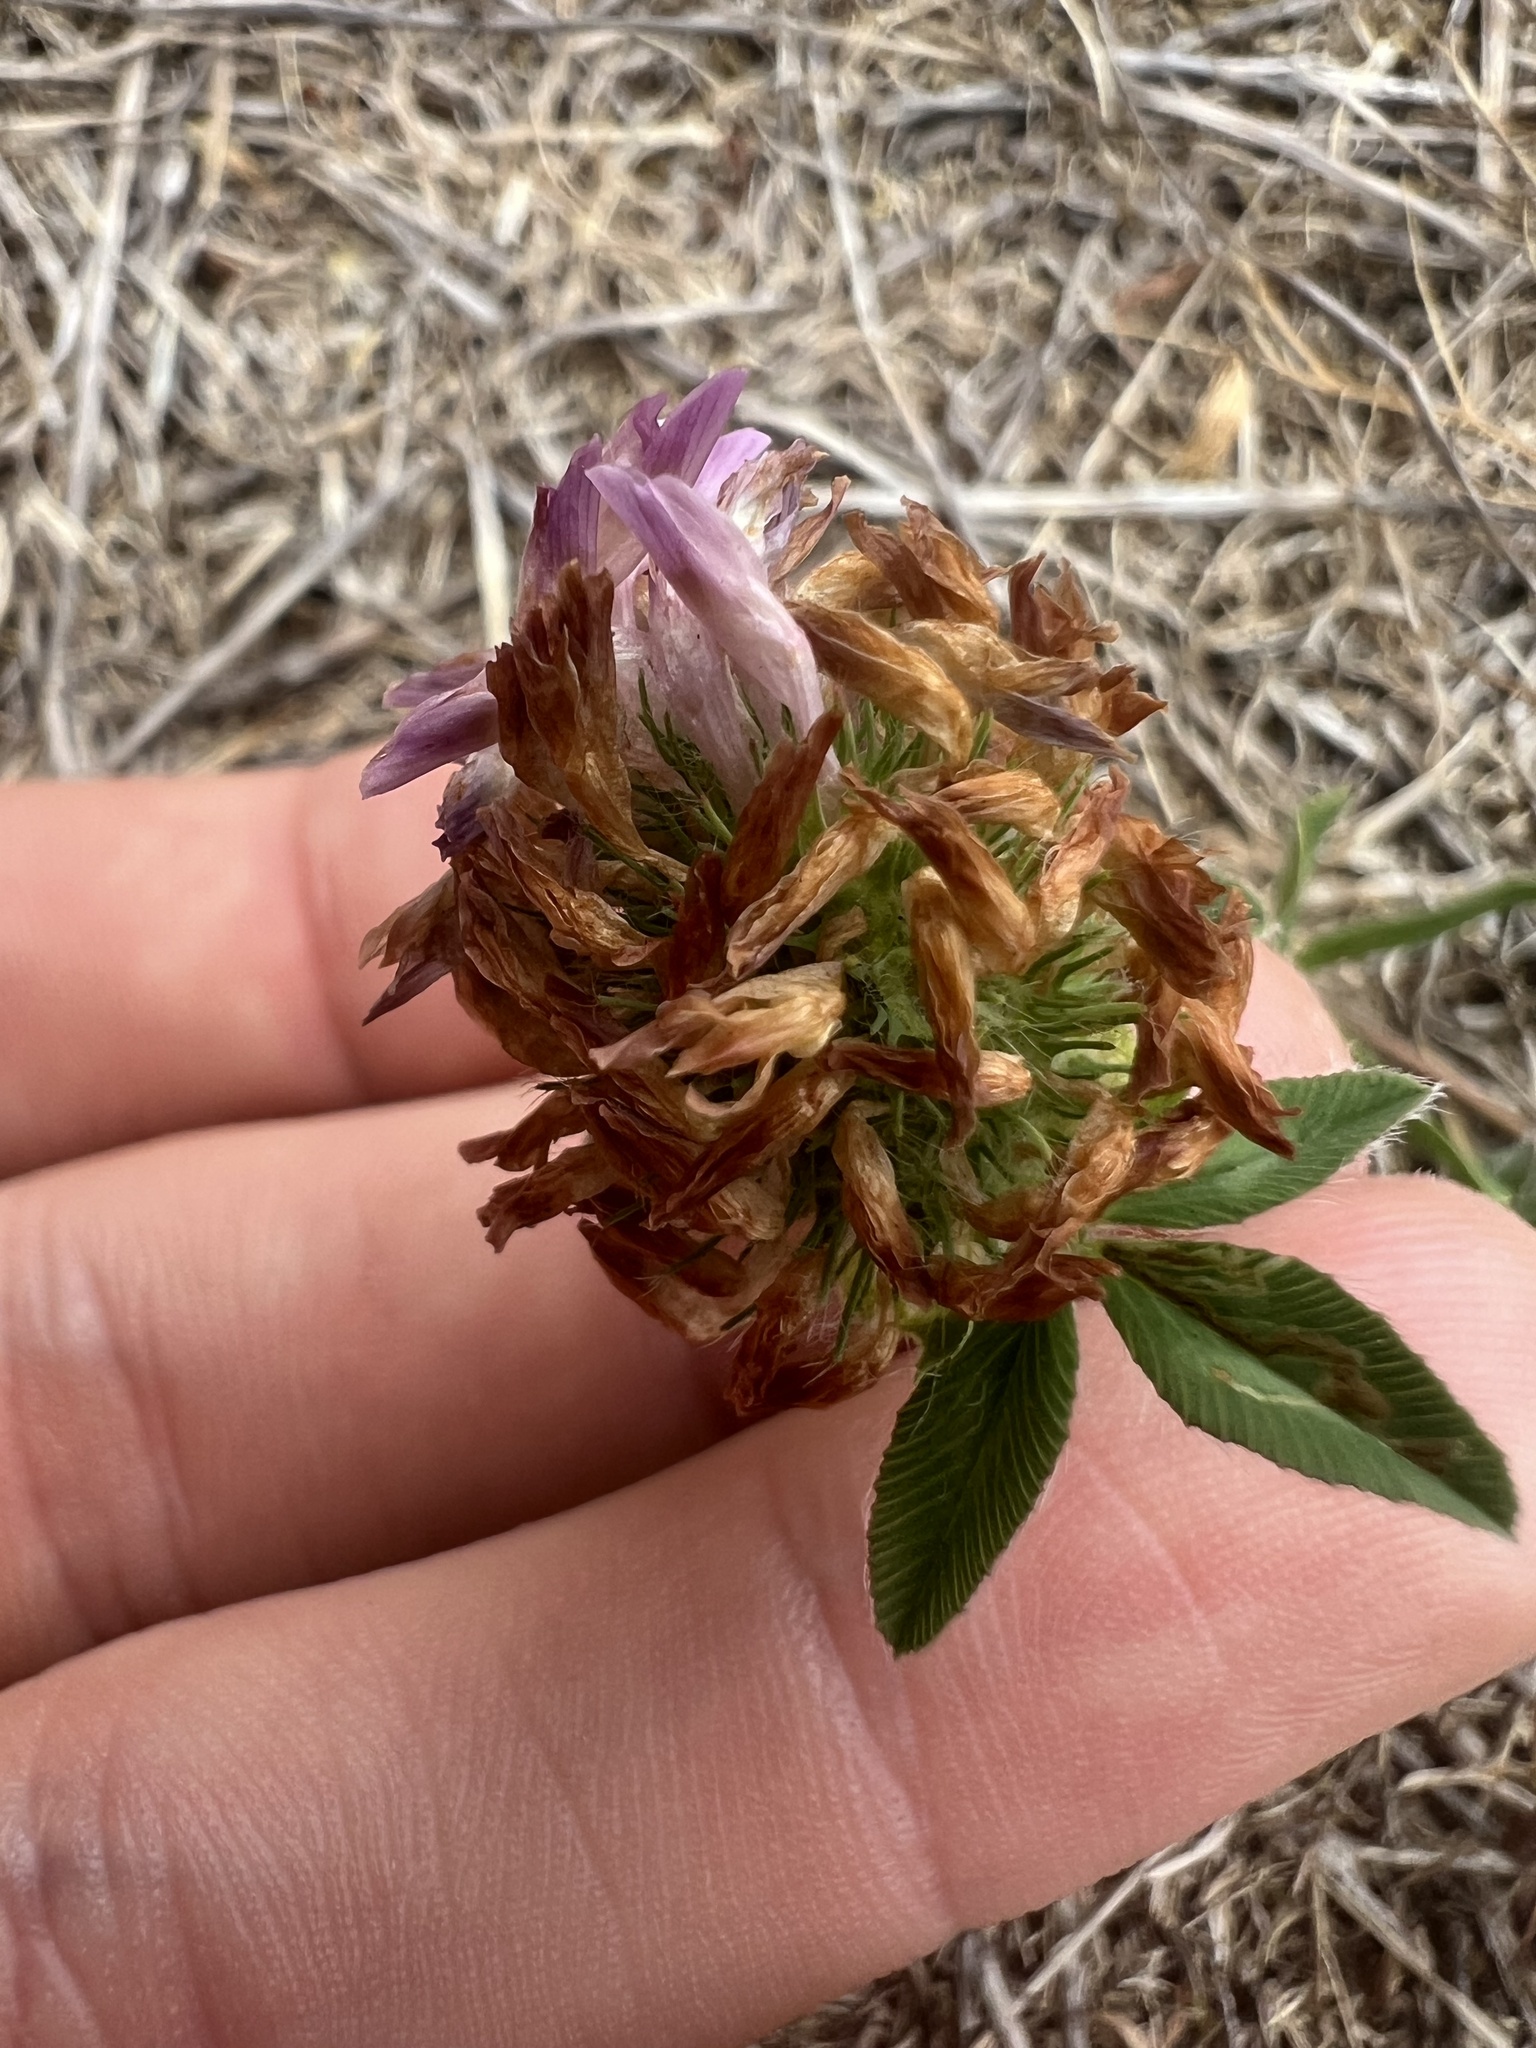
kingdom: Plantae
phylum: Tracheophyta
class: Magnoliopsida
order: Fabales
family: Fabaceae
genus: Trifolium
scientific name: Trifolium pratense
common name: Red clover
